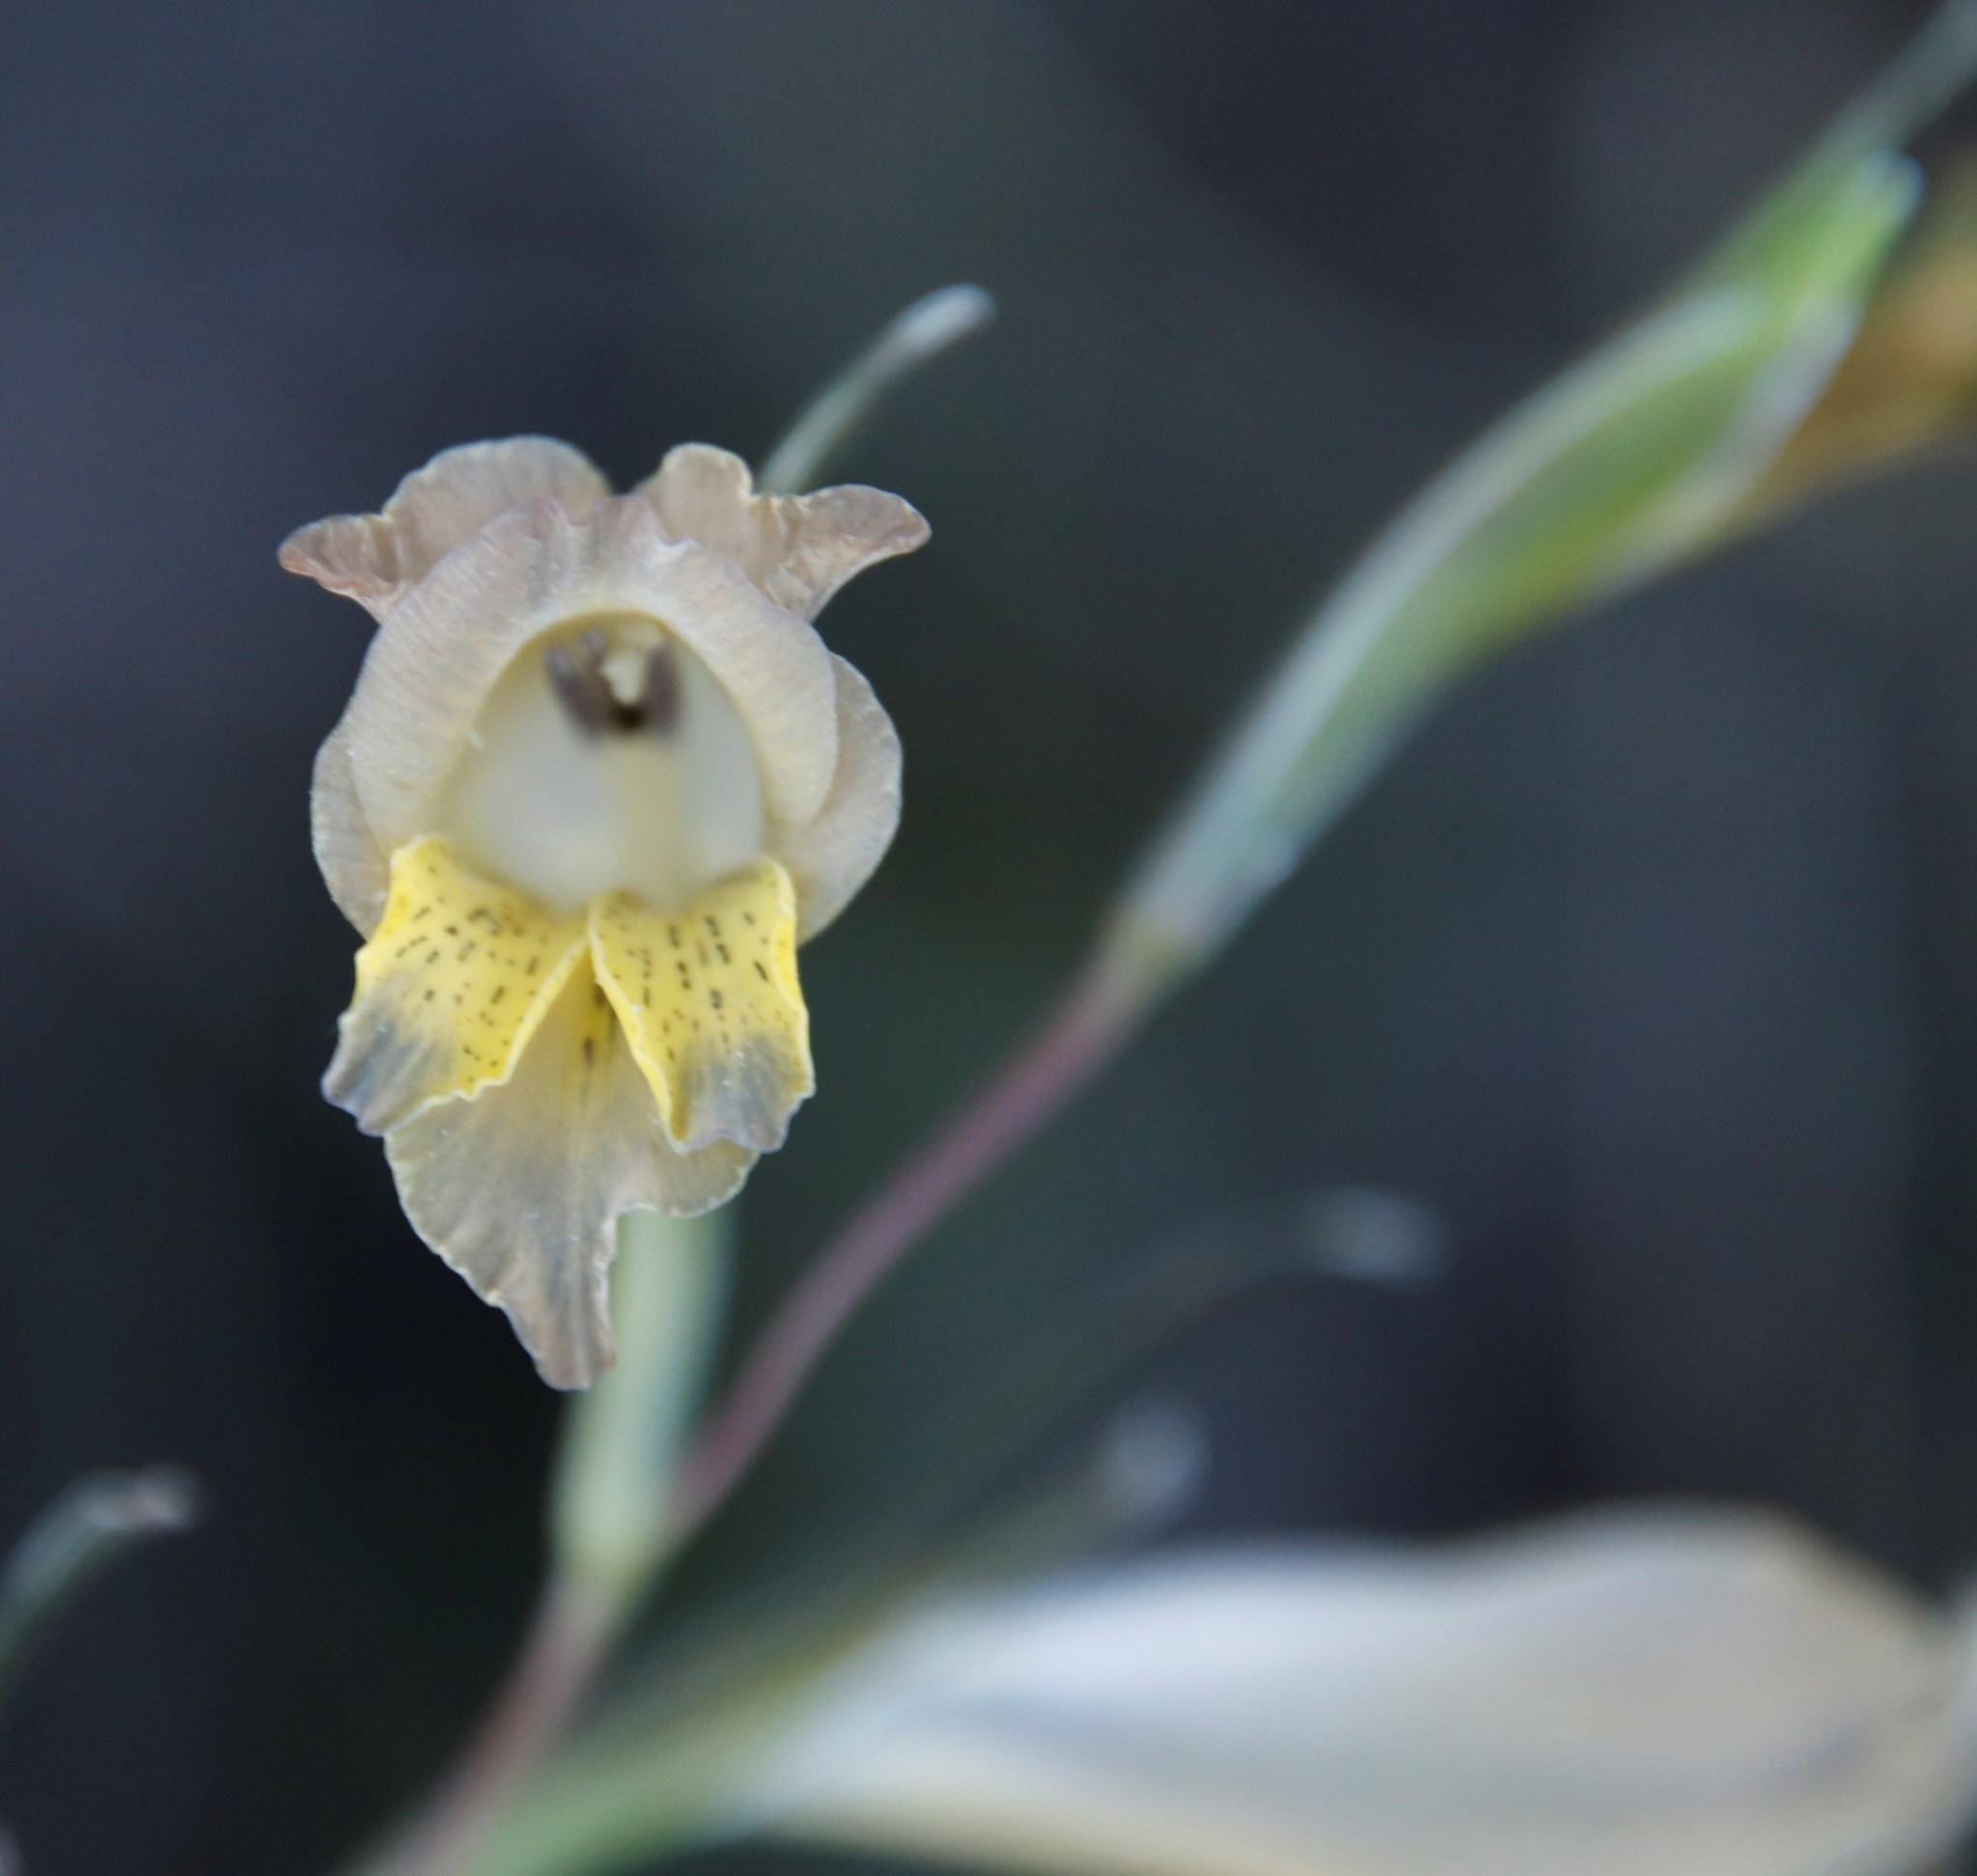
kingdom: Plantae
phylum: Tracheophyta
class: Liliopsida
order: Asparagales
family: Iridaceae
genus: Gladiolus
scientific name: Gladiolus gracilis
